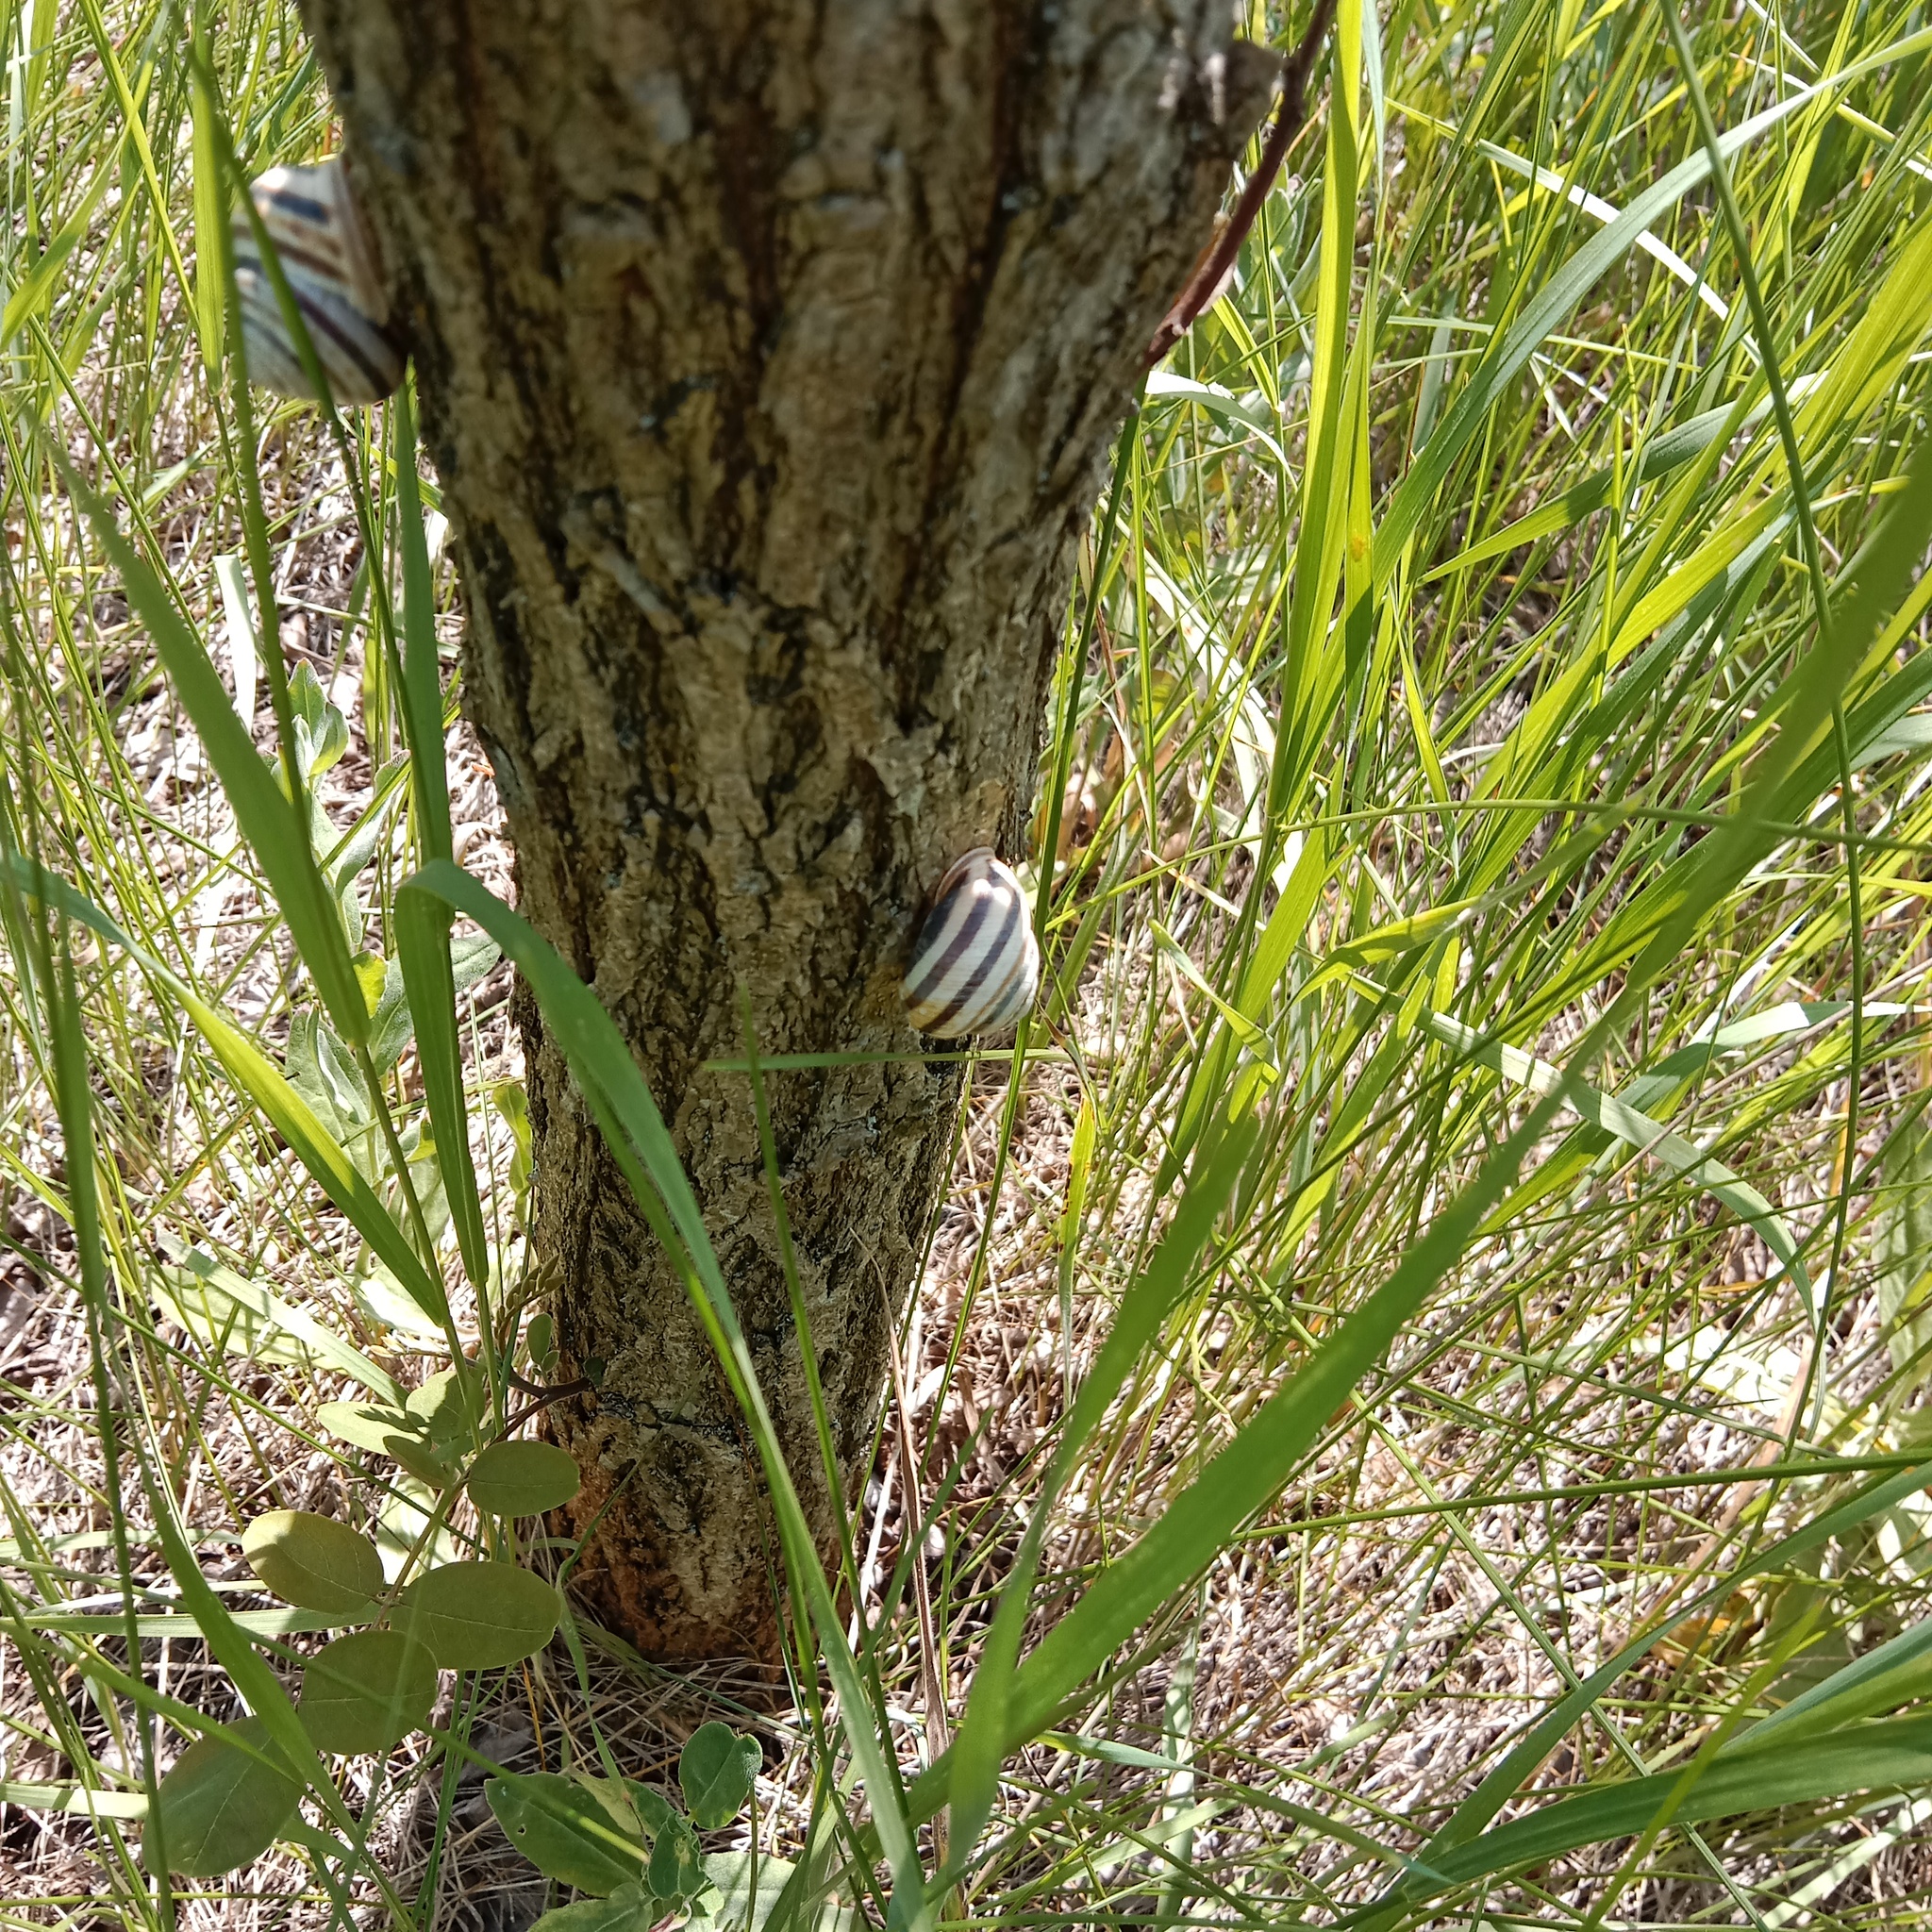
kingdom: Animalia
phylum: Mollusca
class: Gastropoda
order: Stylommatophora
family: Helicidae
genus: Caucasotachea
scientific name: Caucasotachea vindobonensis
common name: European helicid land snail
